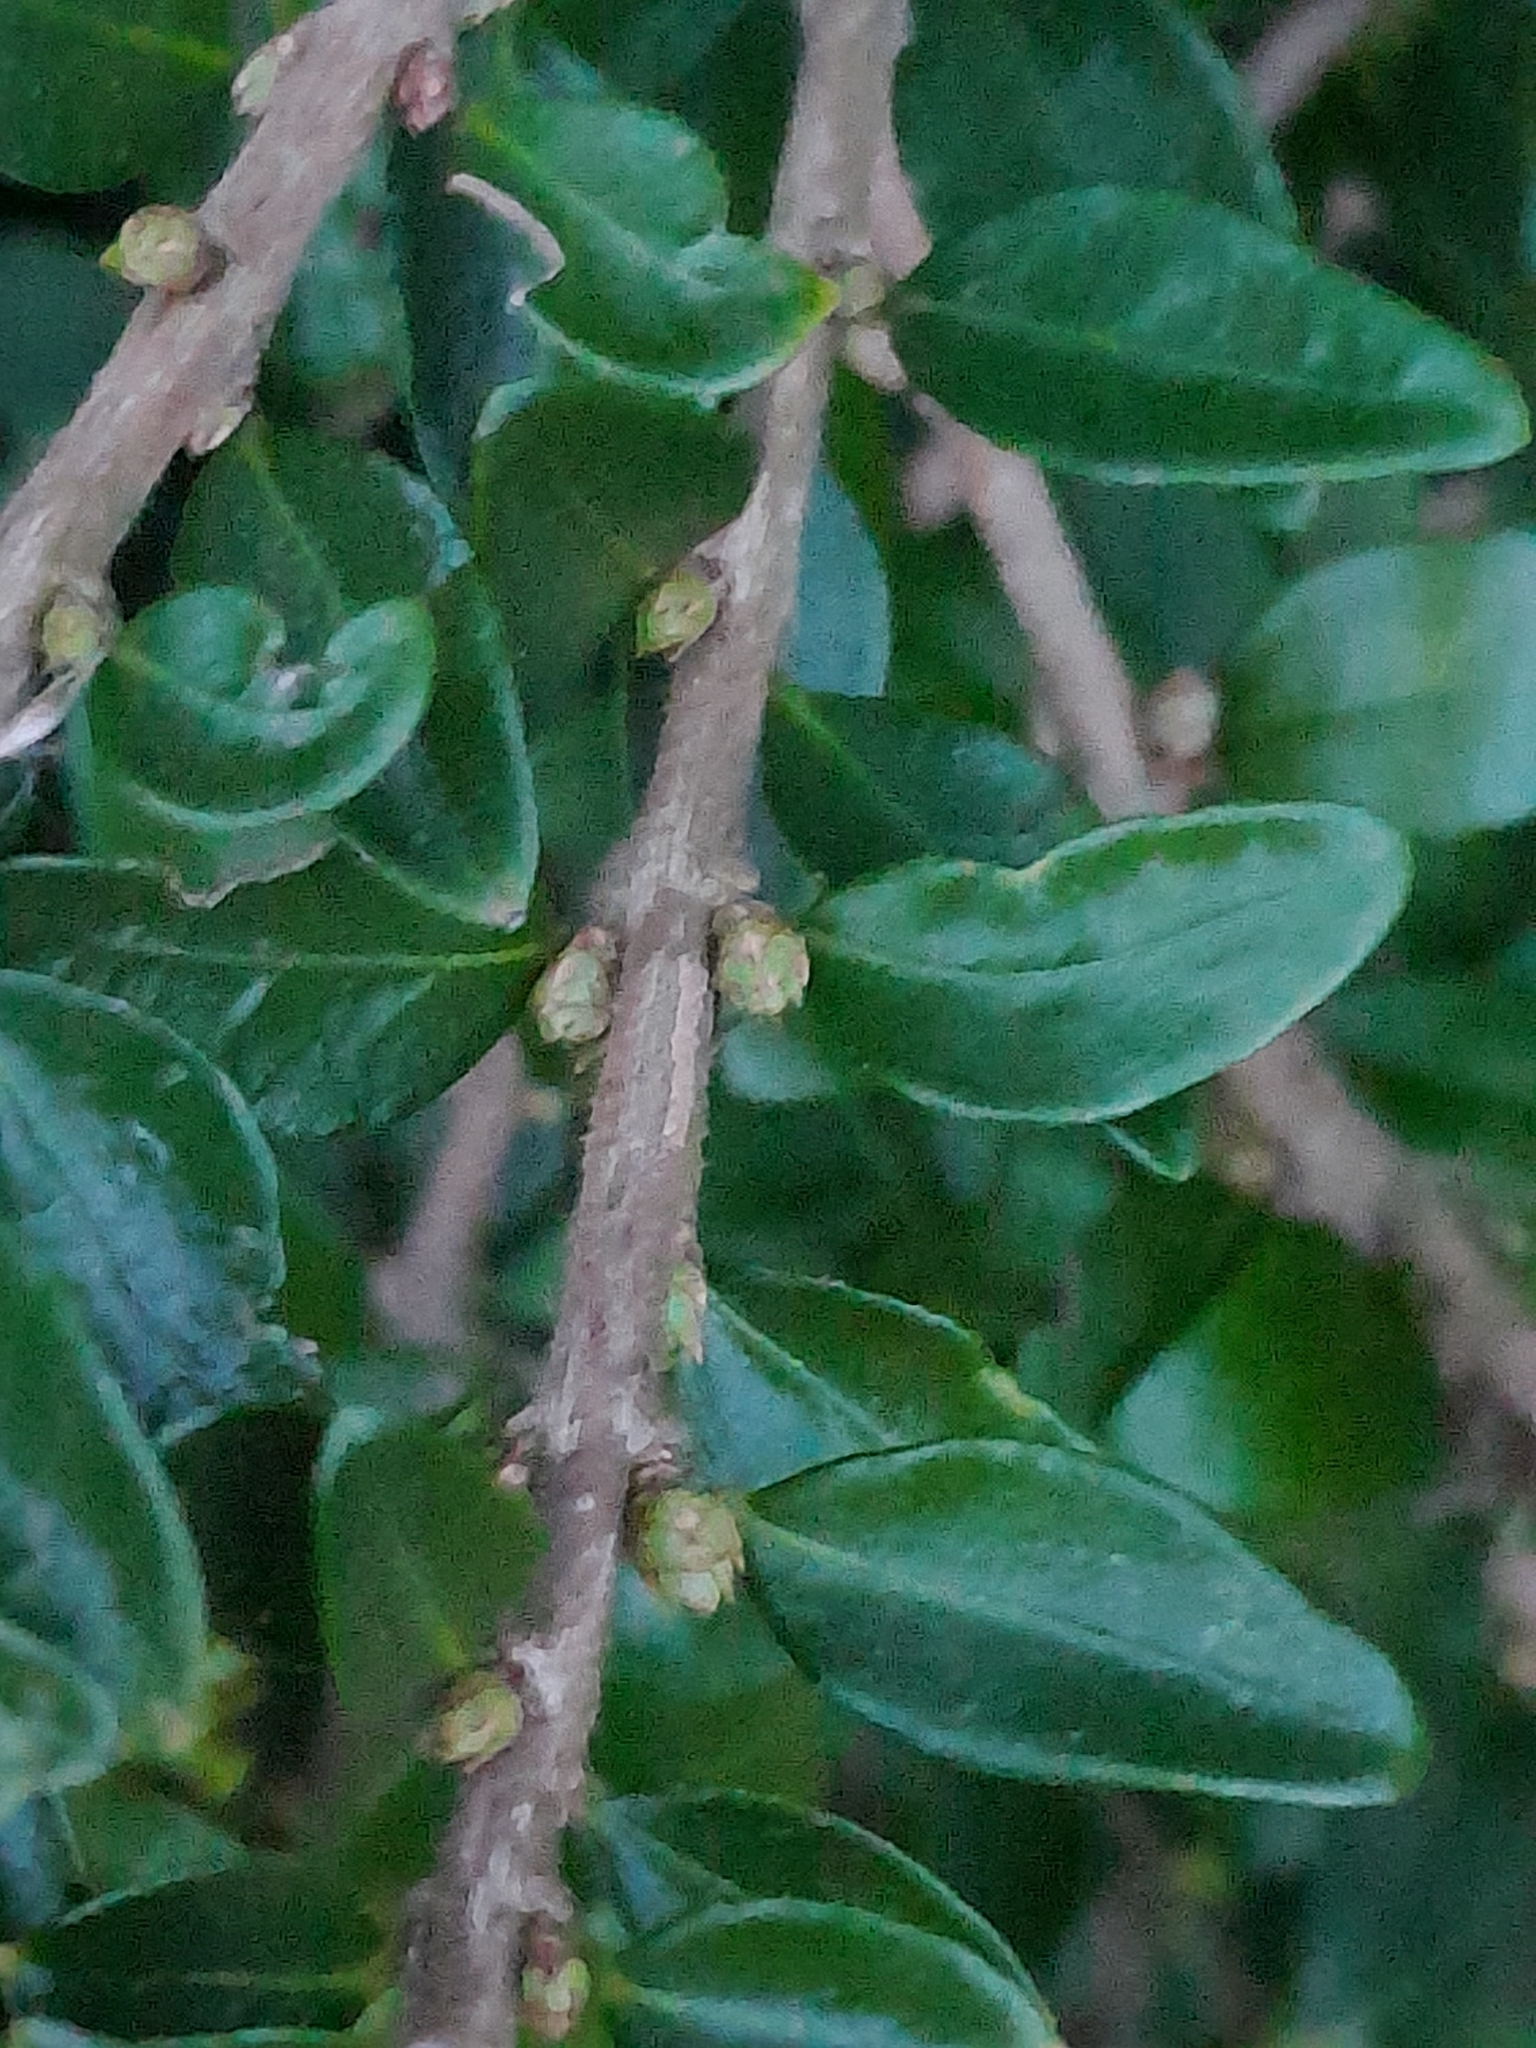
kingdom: Plantae
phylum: Tracheophyta
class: Magnoliopsida
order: Dipsacales
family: Caprifoliaceae
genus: Lonicera
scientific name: Lonicera ligustrina
